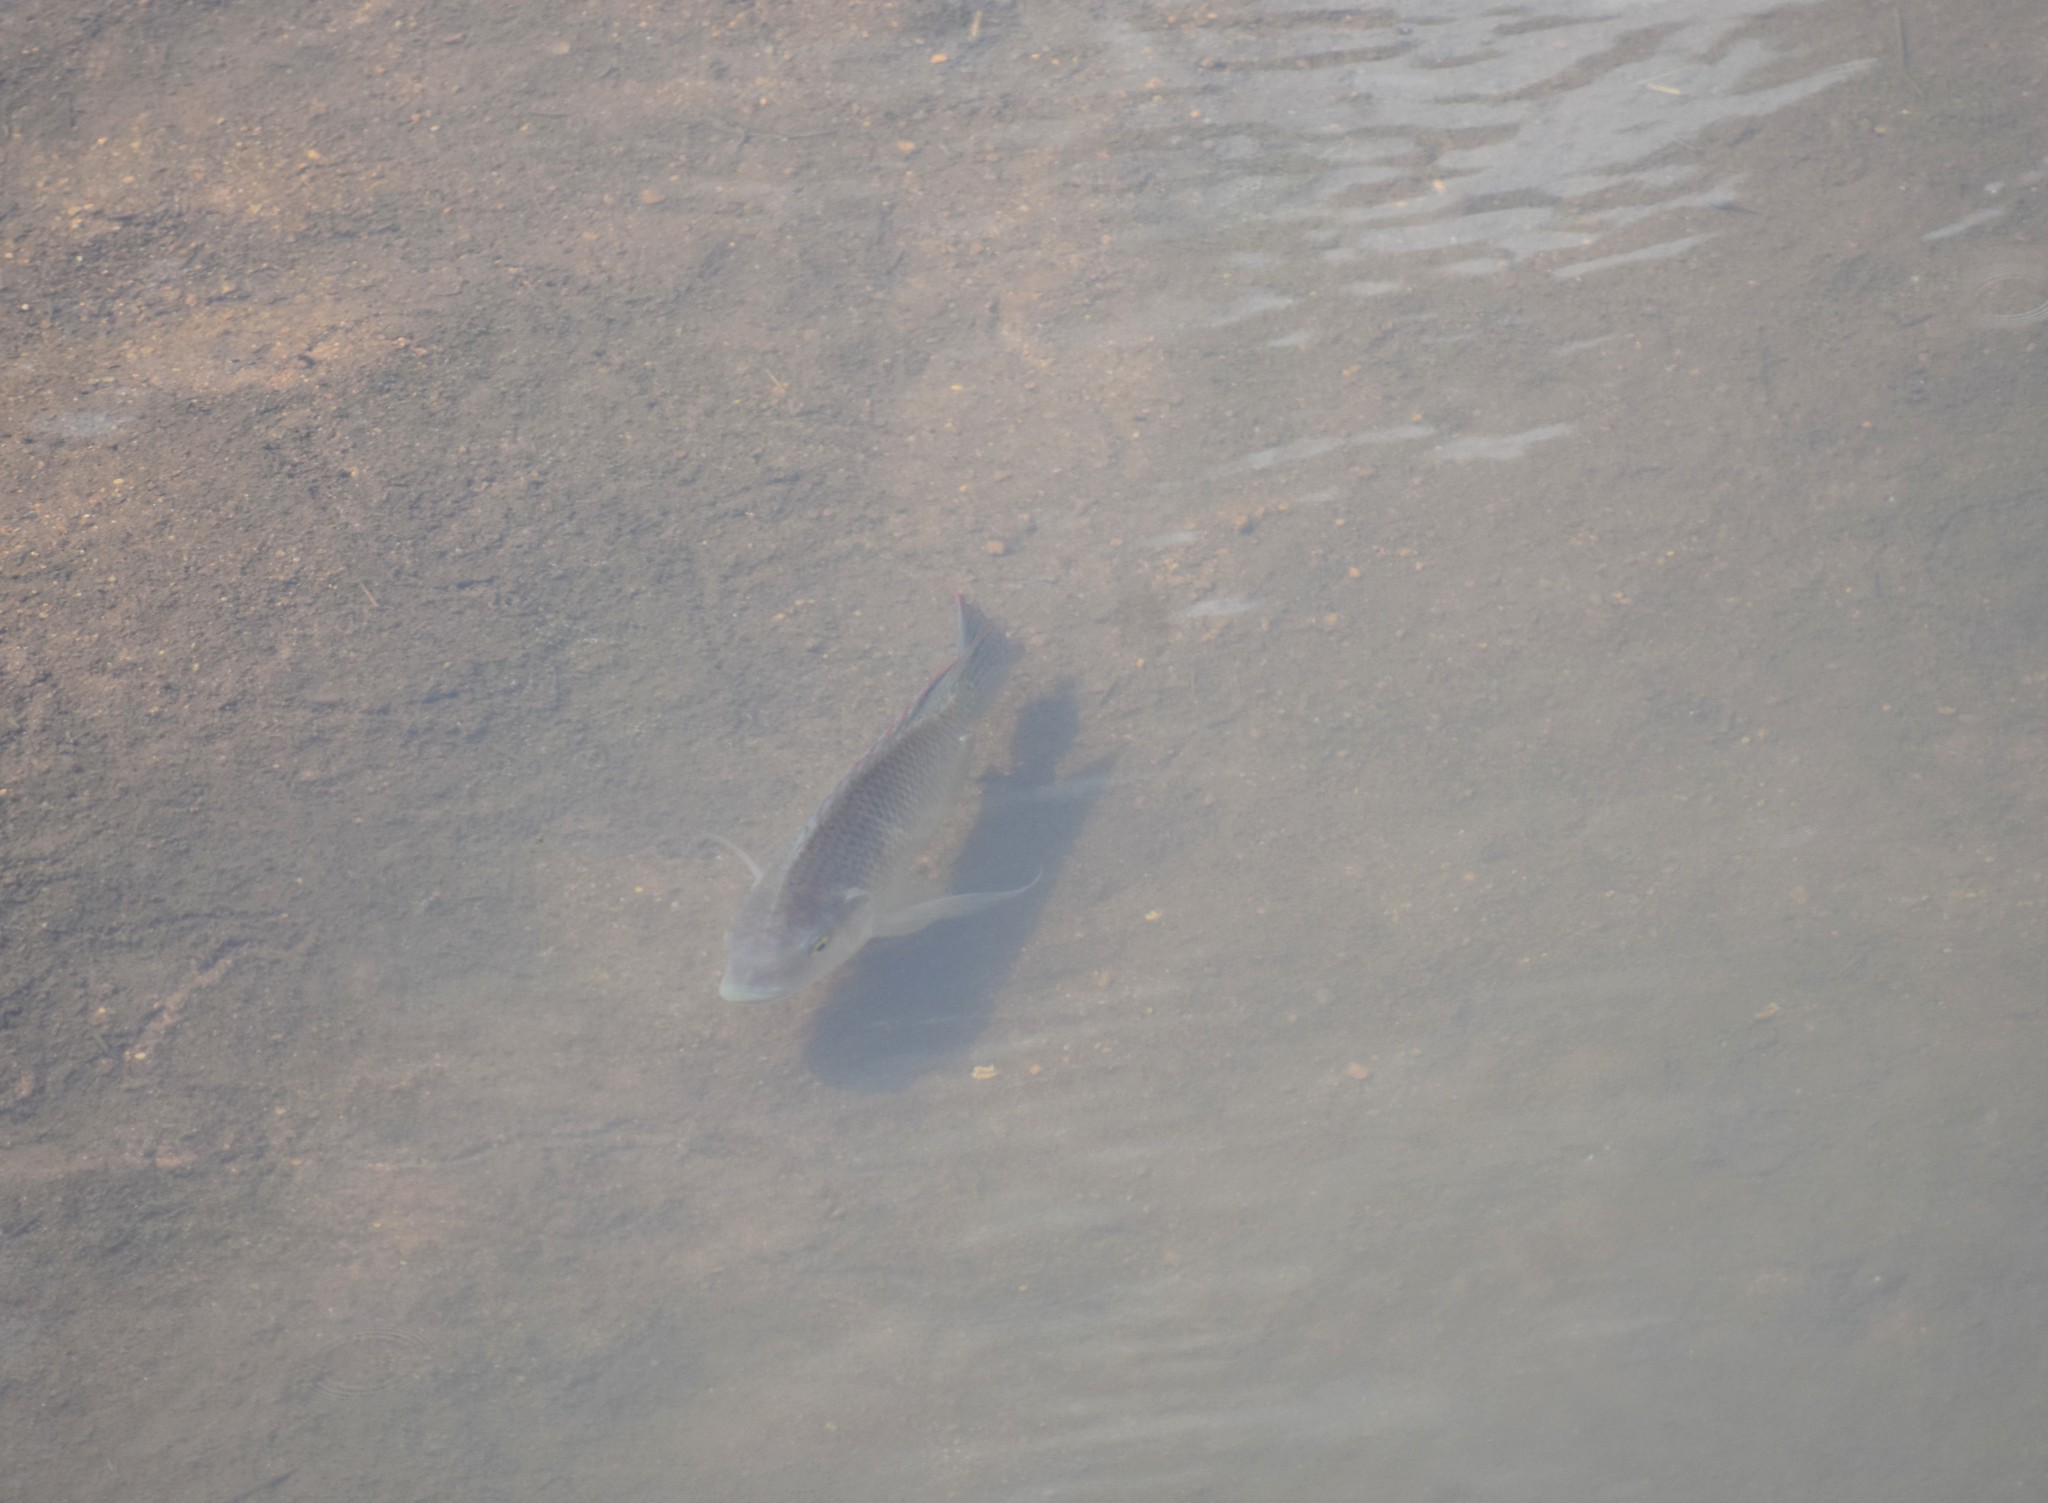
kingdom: Animalia
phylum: Chordata
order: Perciformes
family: Cichlidae
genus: Oreochromis
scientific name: Oreochromis mossambicus
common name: Mozambique tilapia
